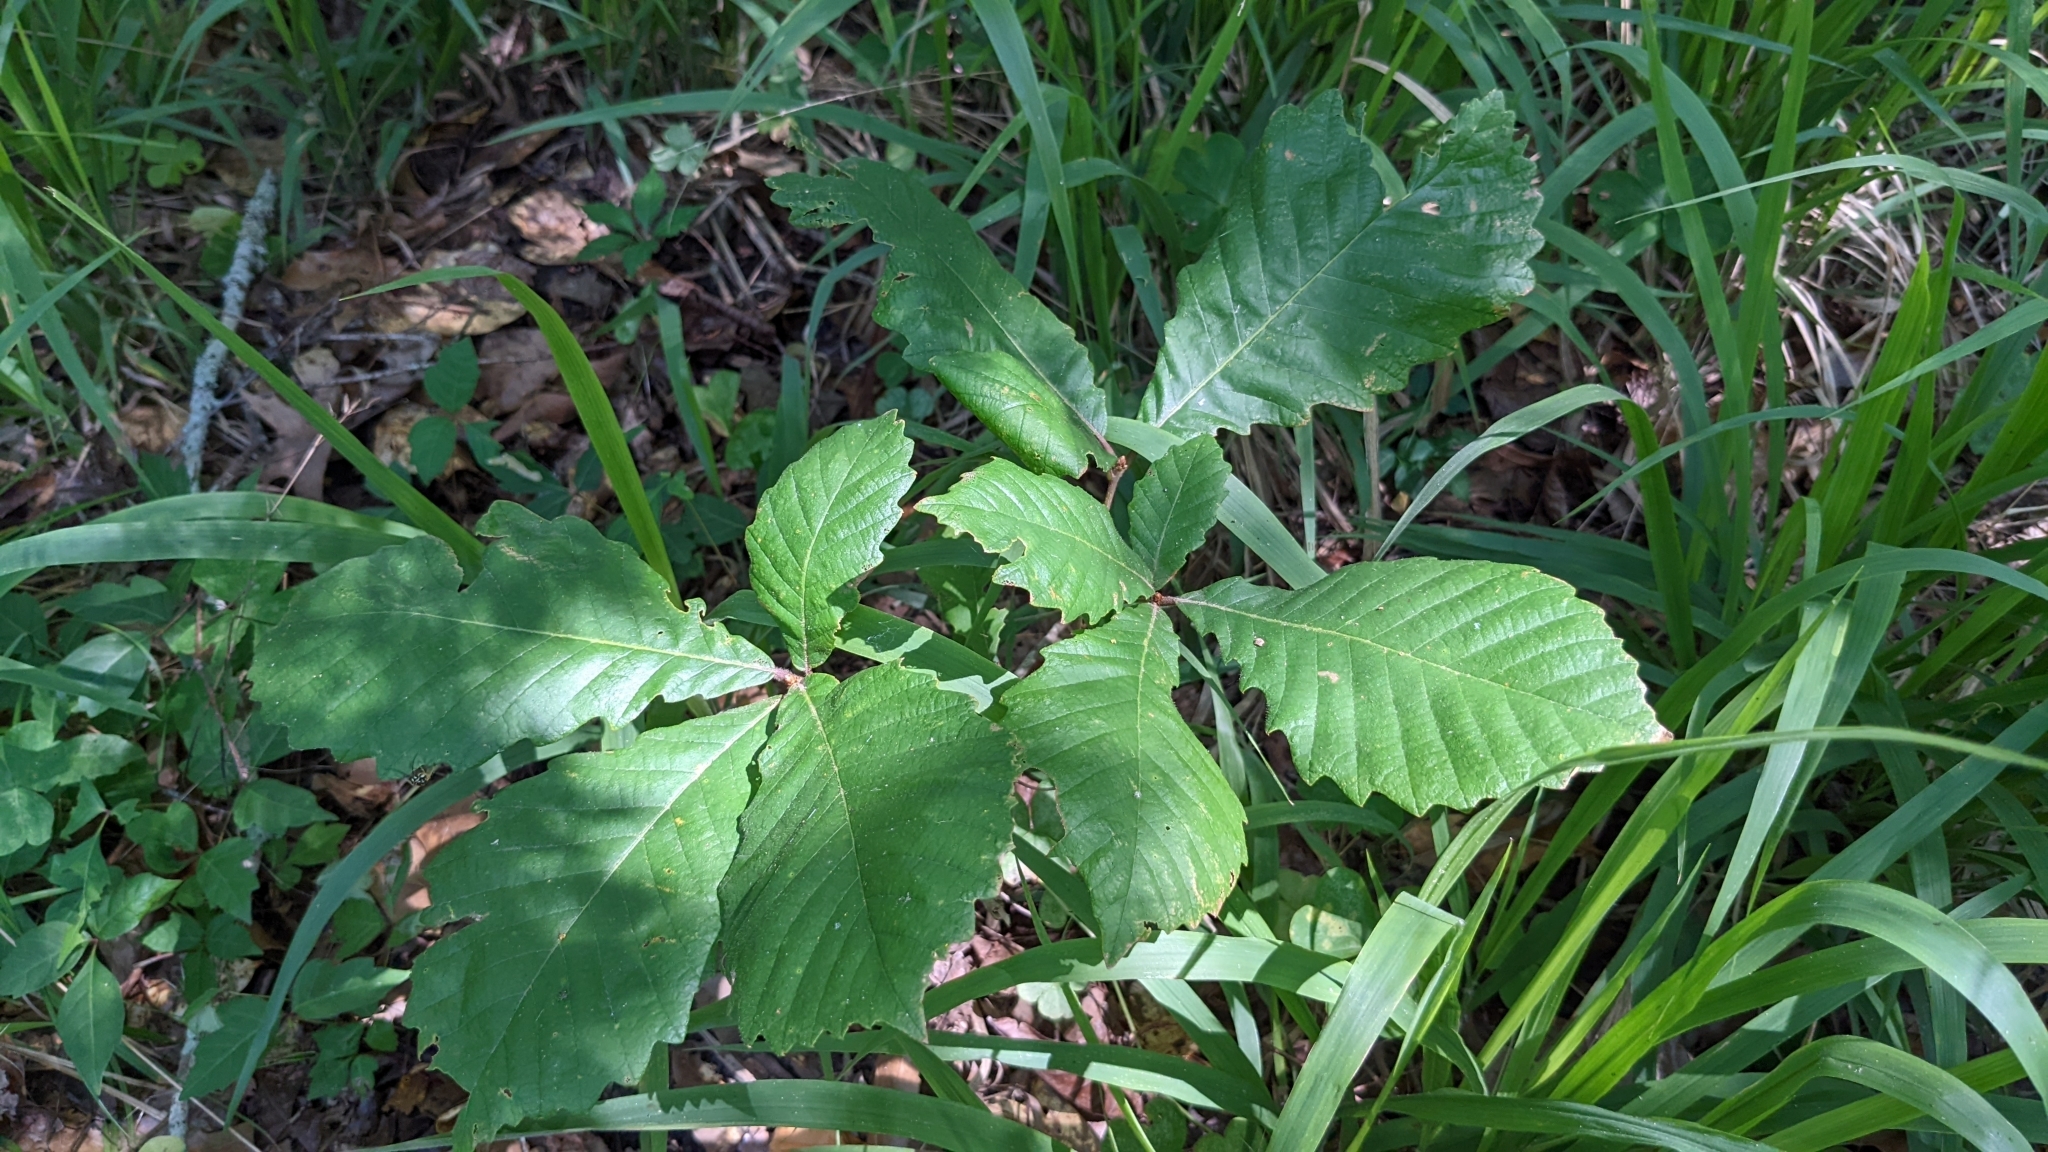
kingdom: Plantae
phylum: Tracheophyta
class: Magnoliopsida
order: Fagales
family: Fagaceae
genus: Quercus
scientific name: Quercus michauxii
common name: Swamp chestnut oak
